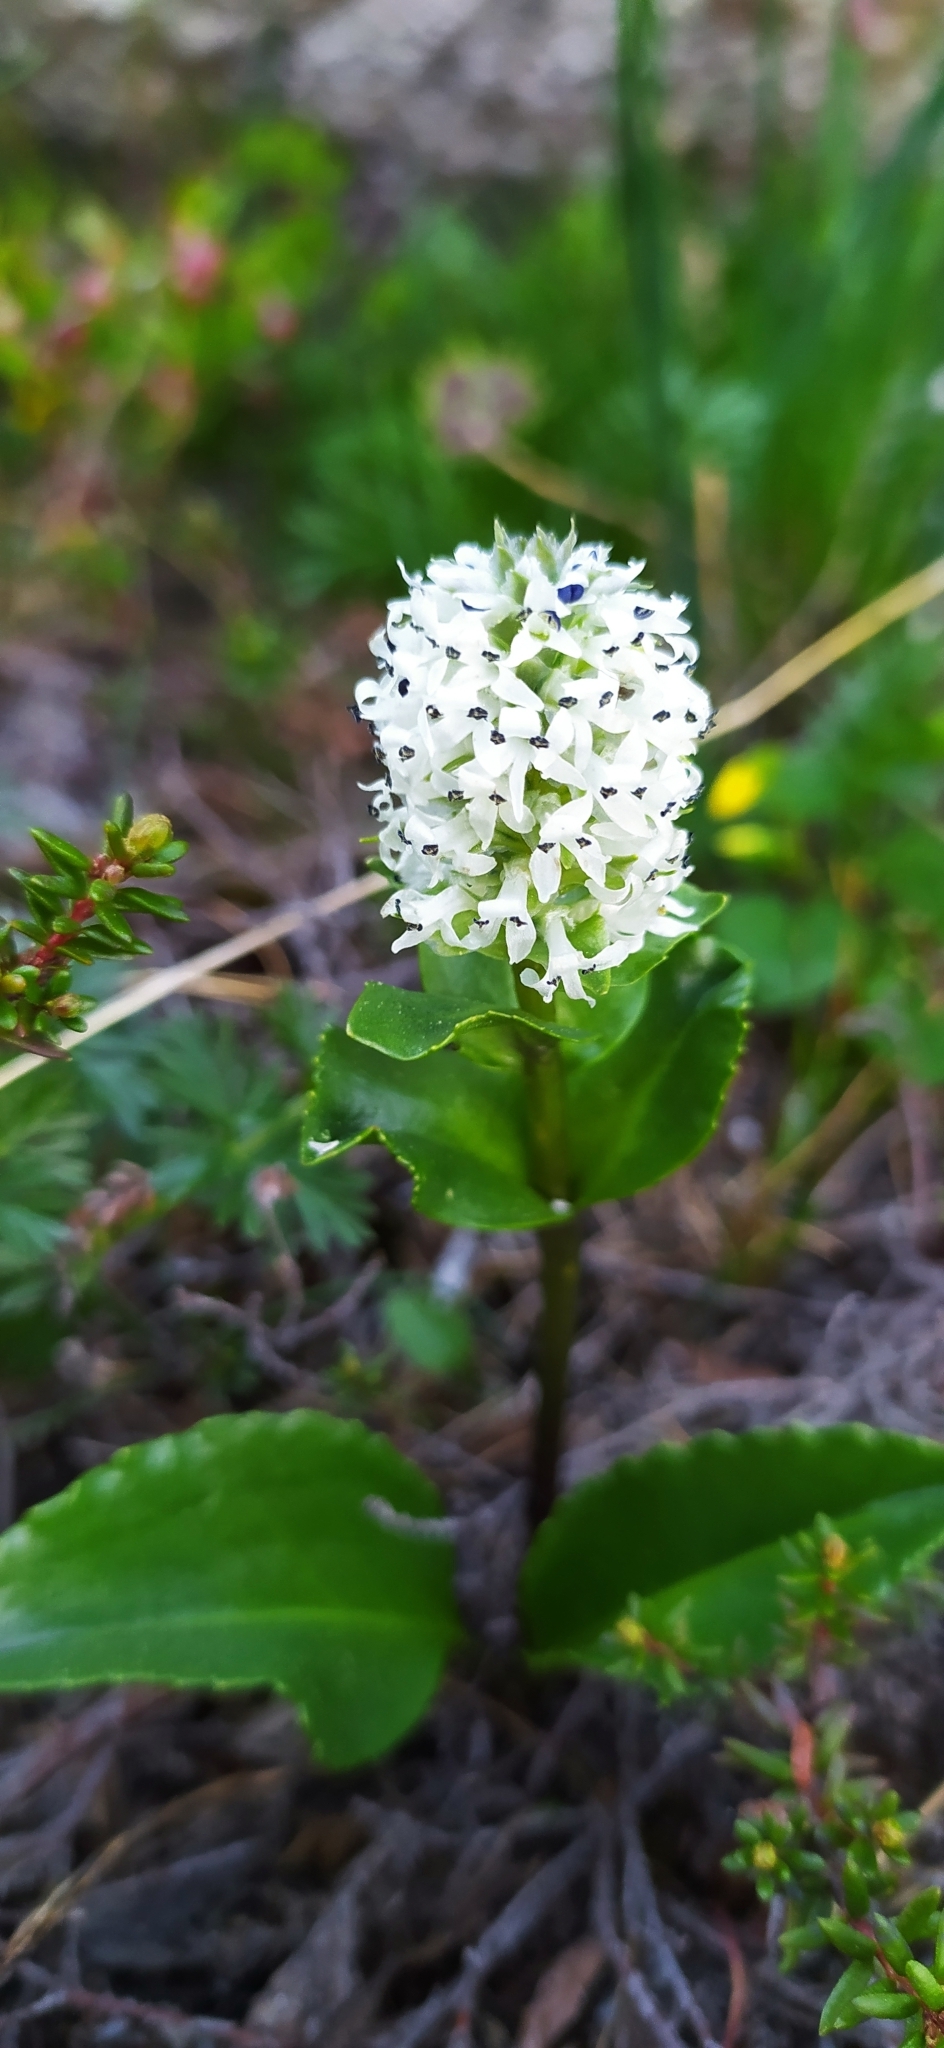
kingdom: Plantae
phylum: Tracheophyta
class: Magnoliopsida
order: Lamiales
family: Plantaginaceae
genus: Lagotis
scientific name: Lagotis uralensis
